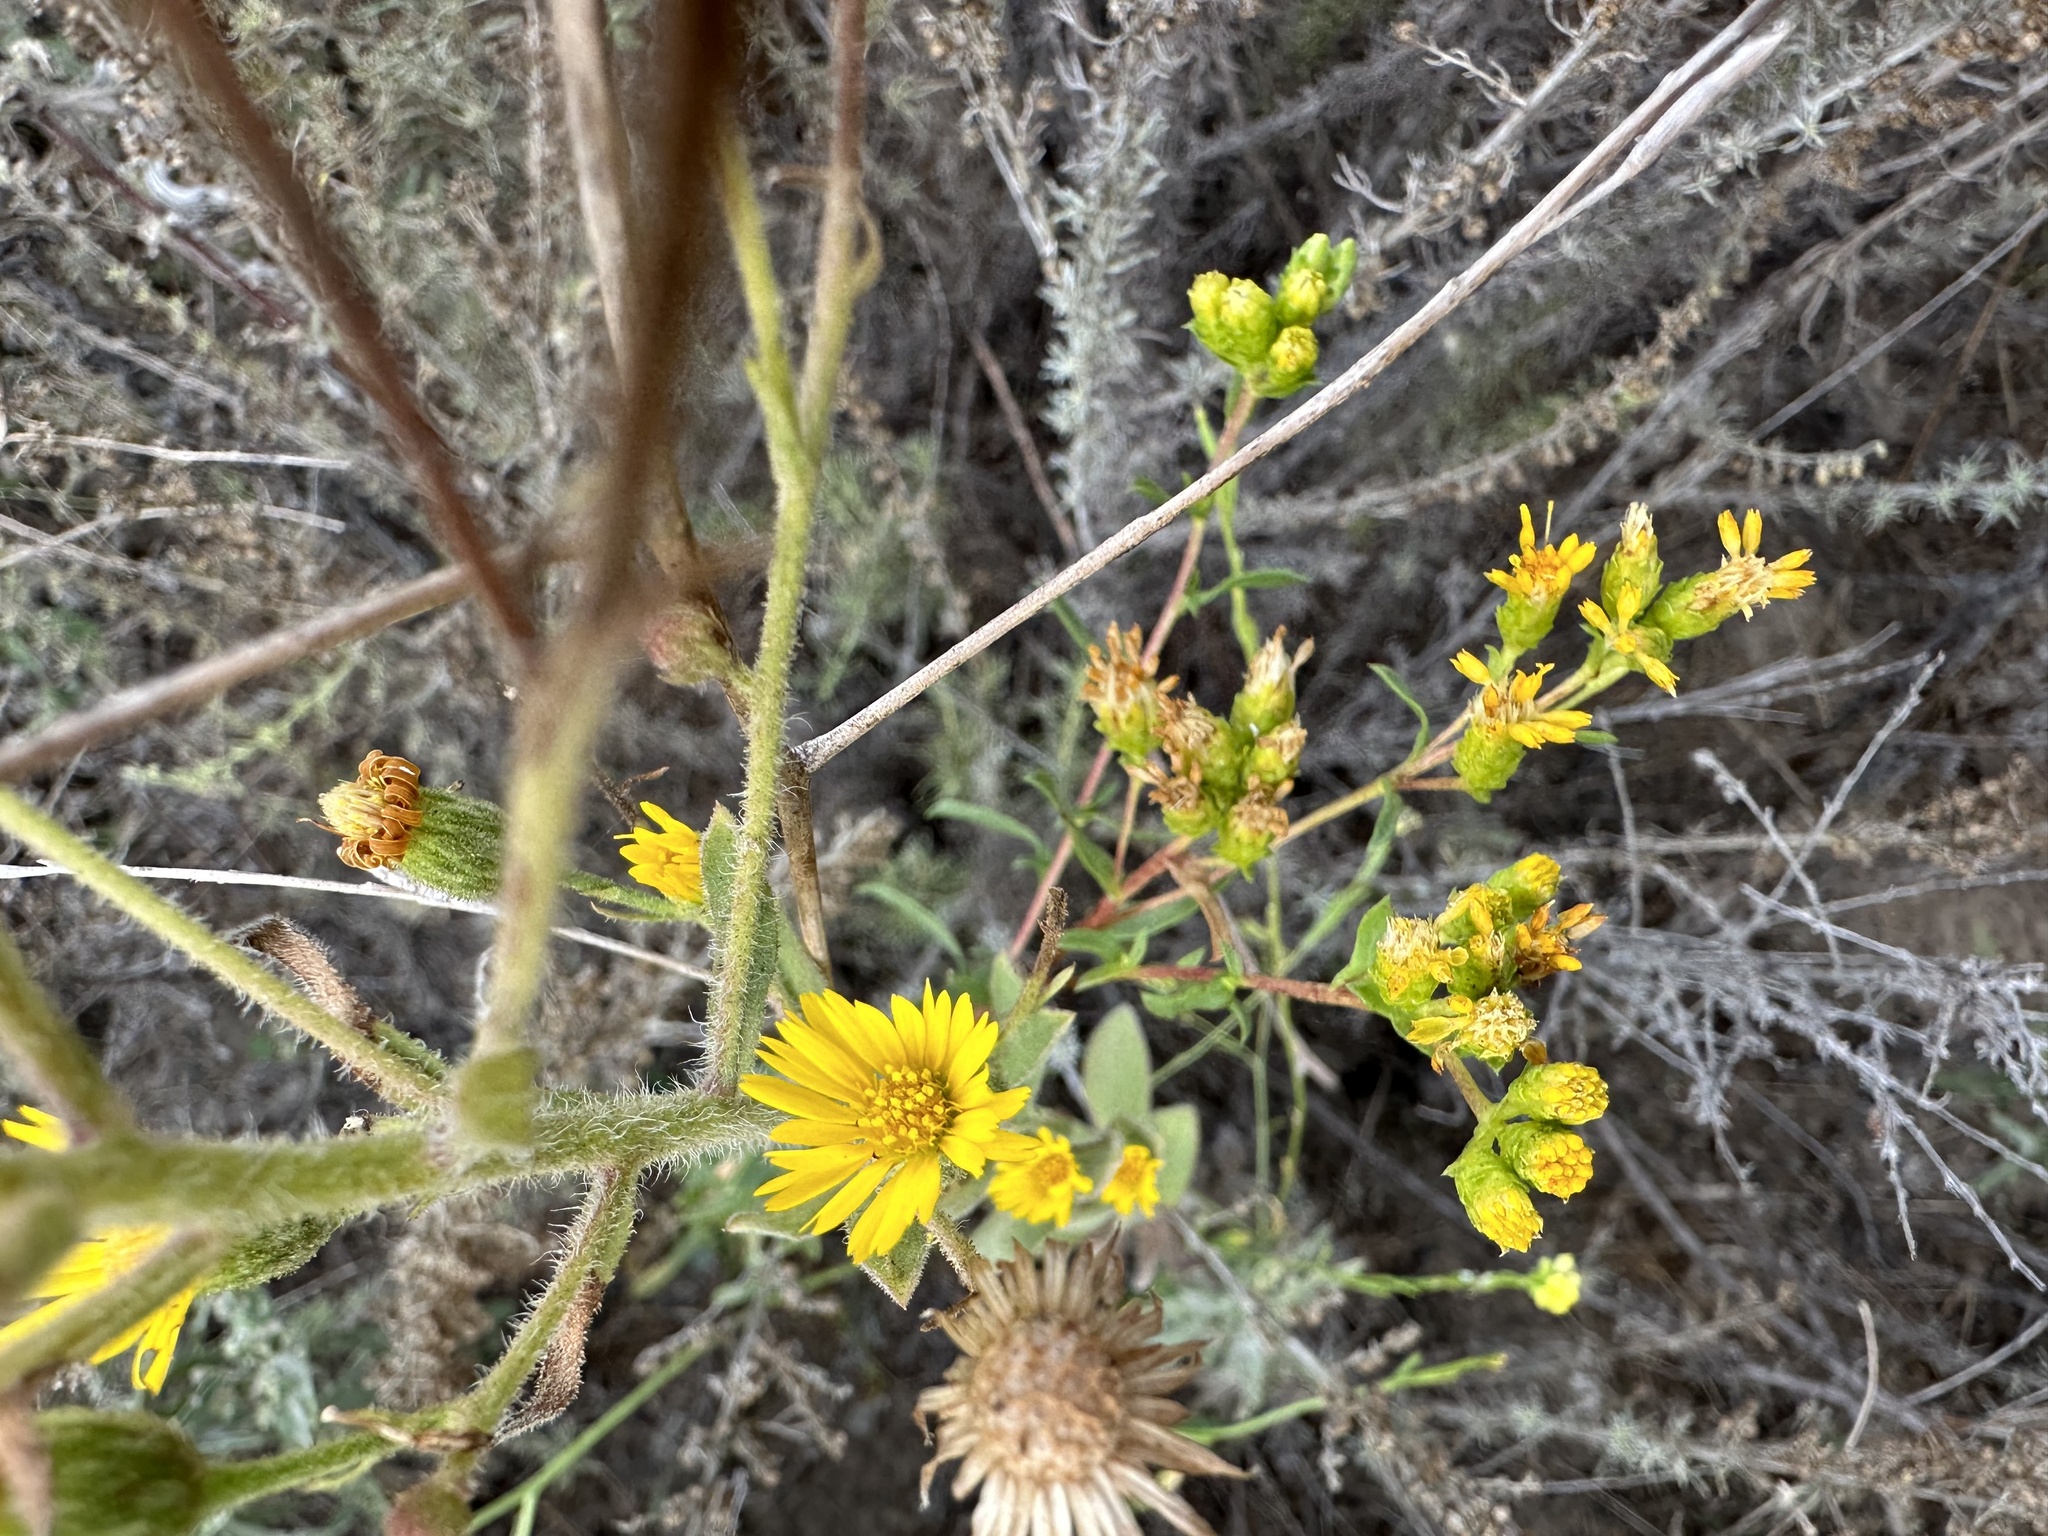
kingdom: Plantae
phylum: Tracheophyta
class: Magnoliopsida
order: Asterales
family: Asteraceae
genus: Heterotheca
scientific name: Heterotheca grandiflora
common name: Telegraphweed
